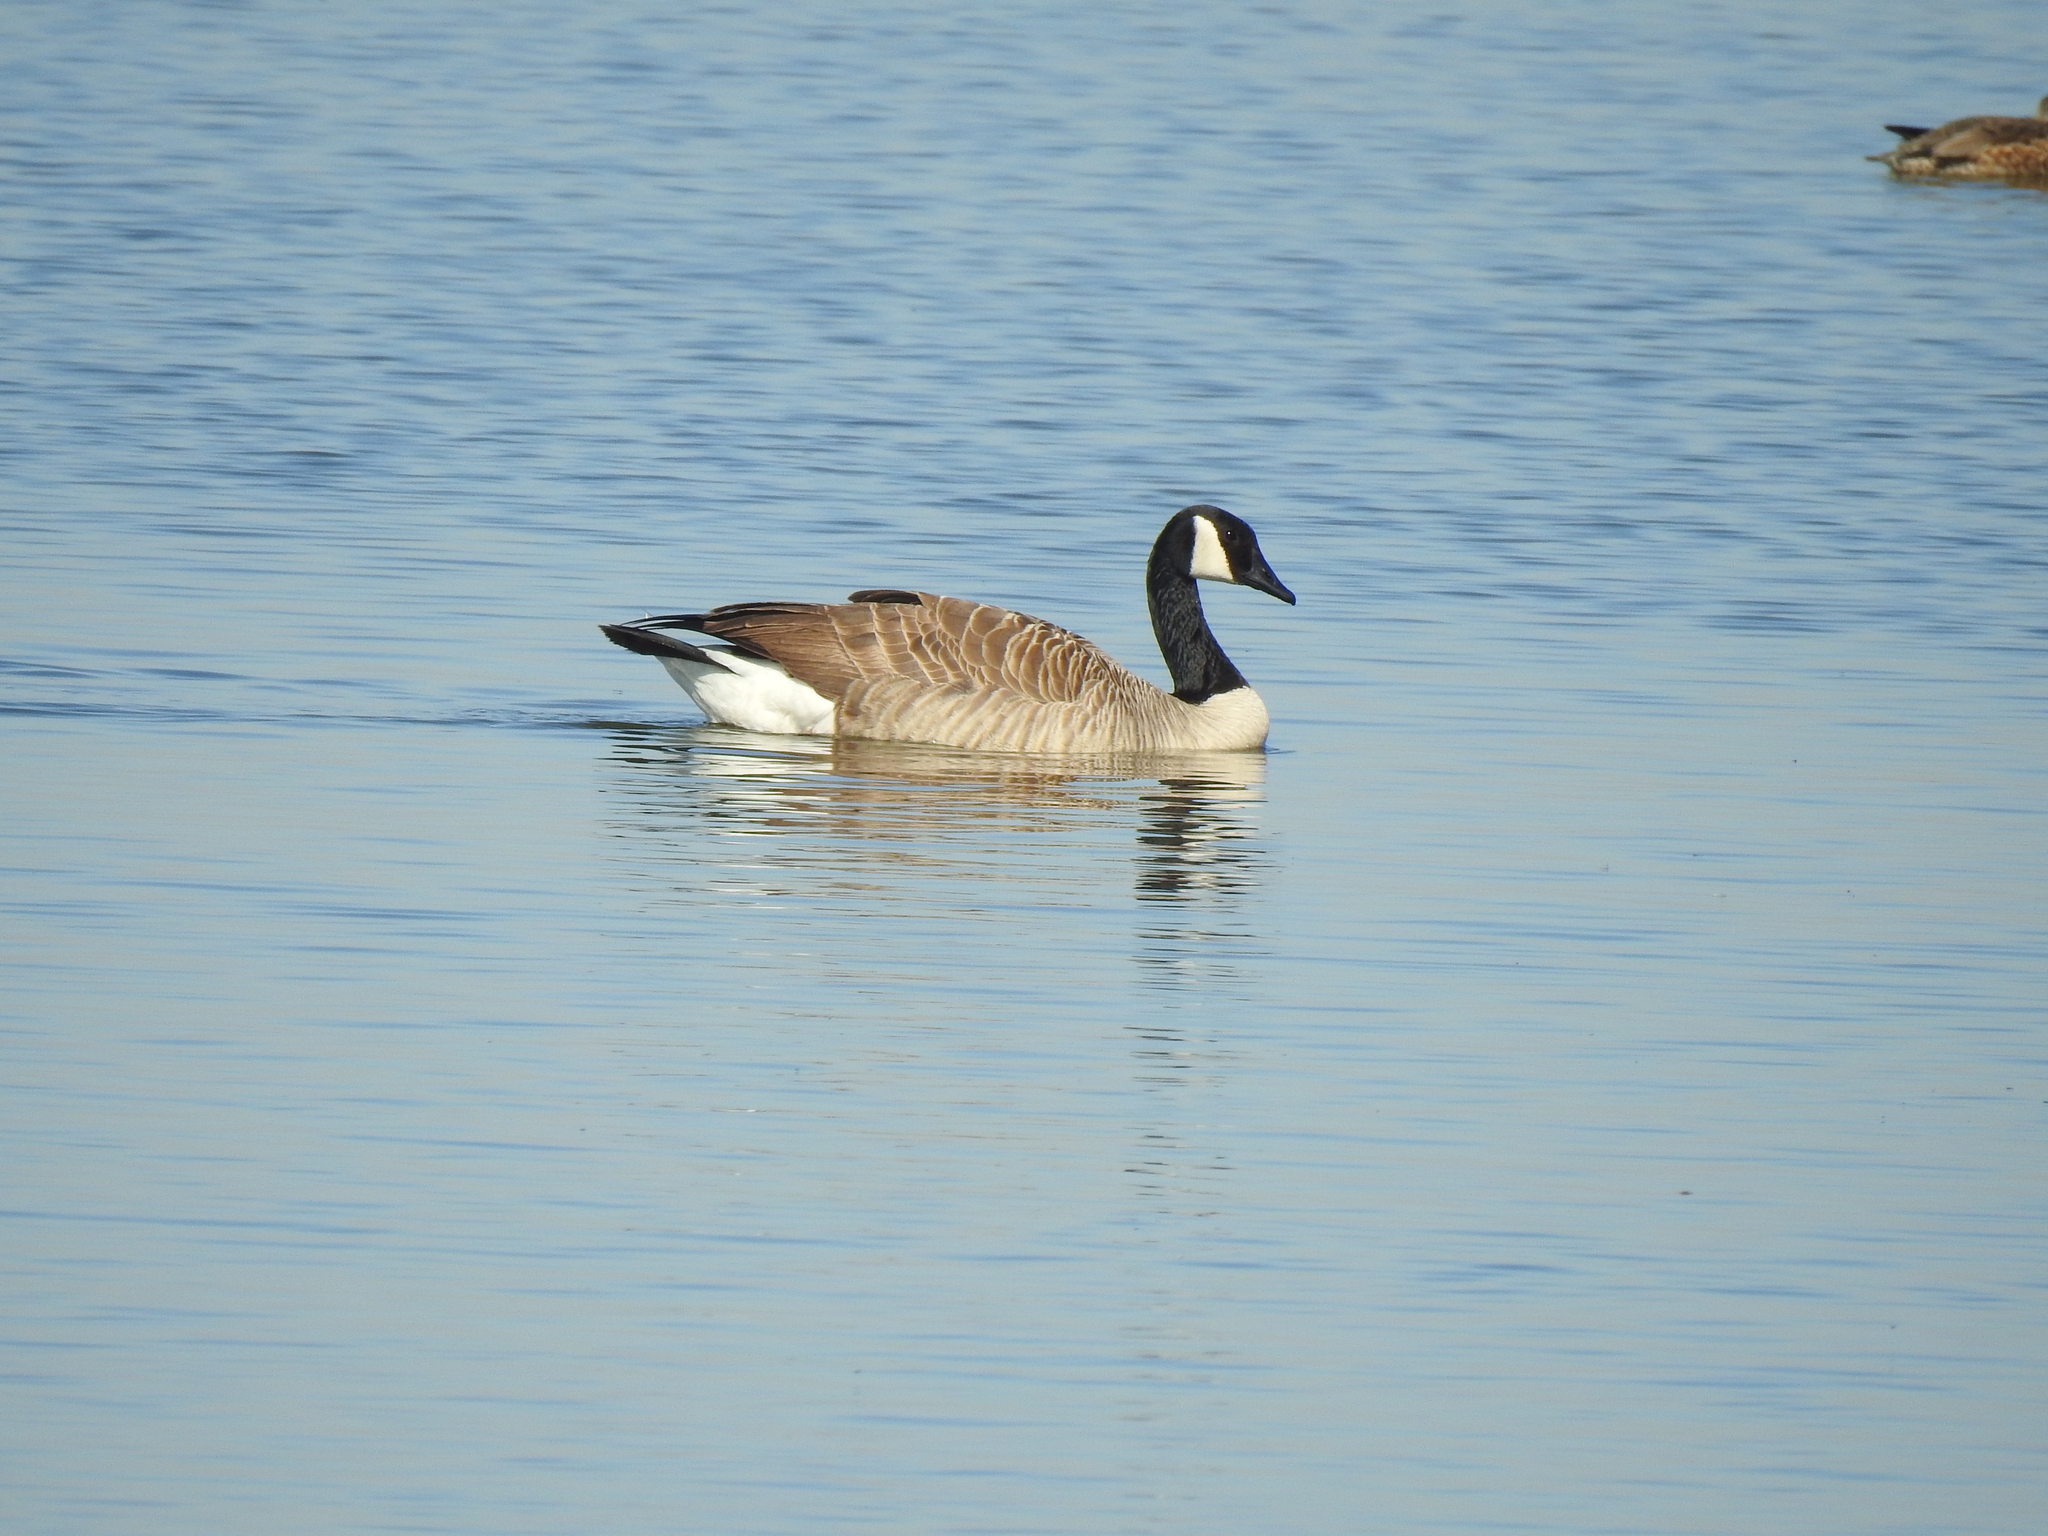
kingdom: Animalia
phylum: Chordata
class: Aves
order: Anseriformes
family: Anatidae
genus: Branta
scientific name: Branta canadensis
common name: Canada goose
